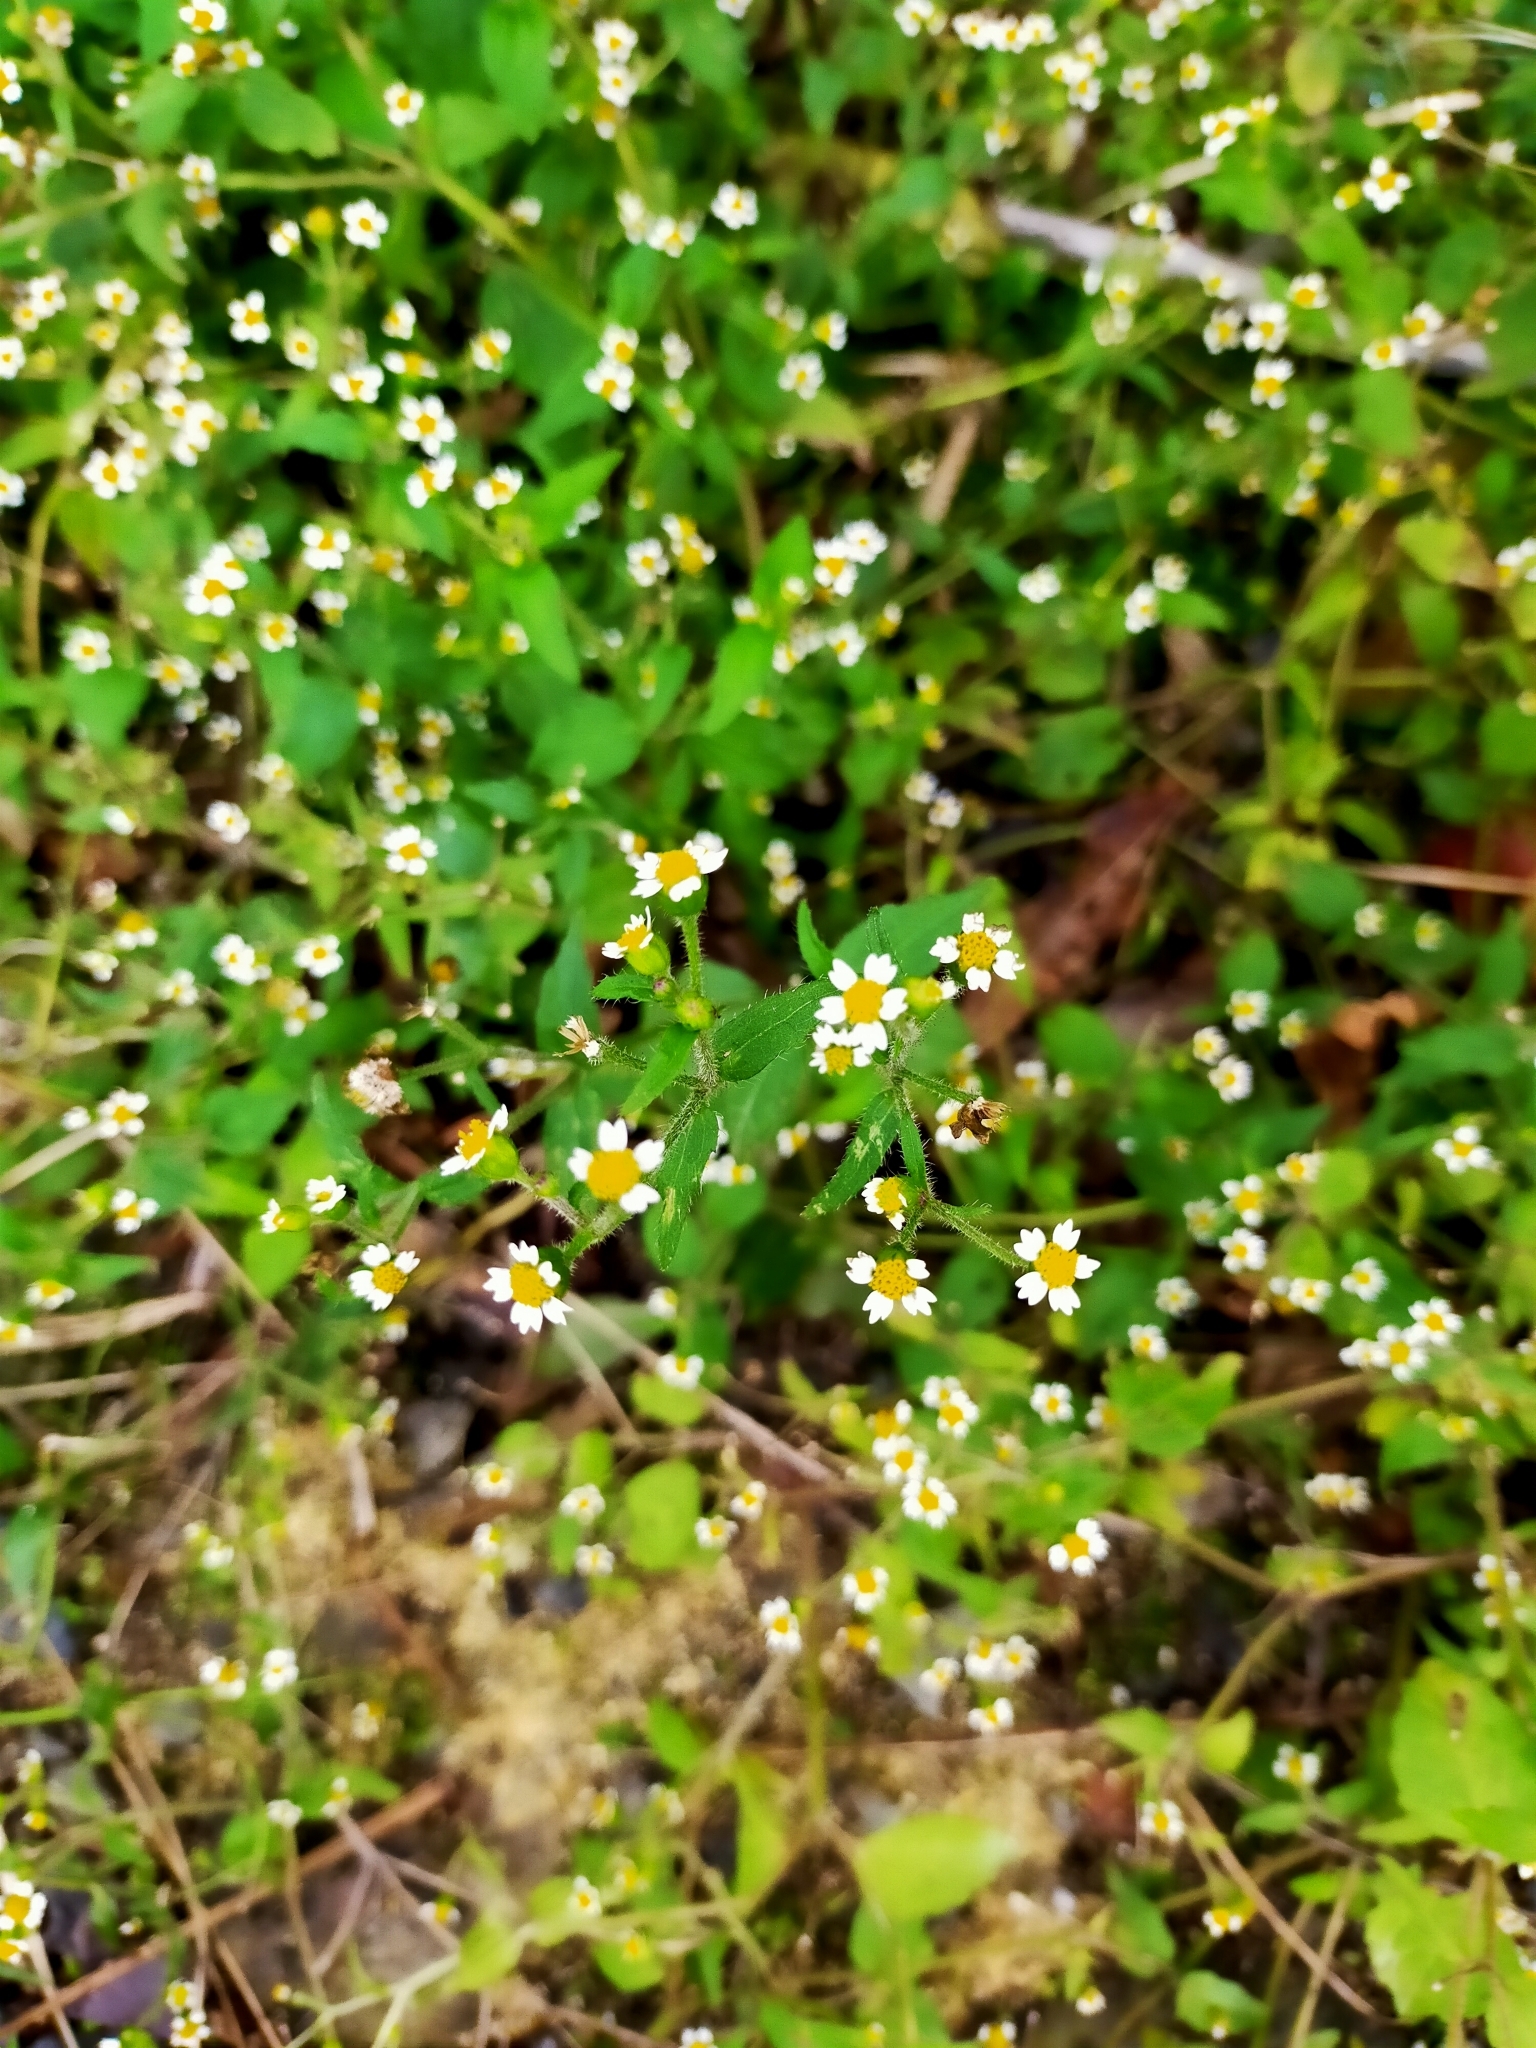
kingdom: Plantae
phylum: Tracheophyta
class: Magnoliopsida
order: Asterales
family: Asteraceae
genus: Galinsoga
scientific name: Galinsoga quadriradiata
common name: Shaggy soldier
